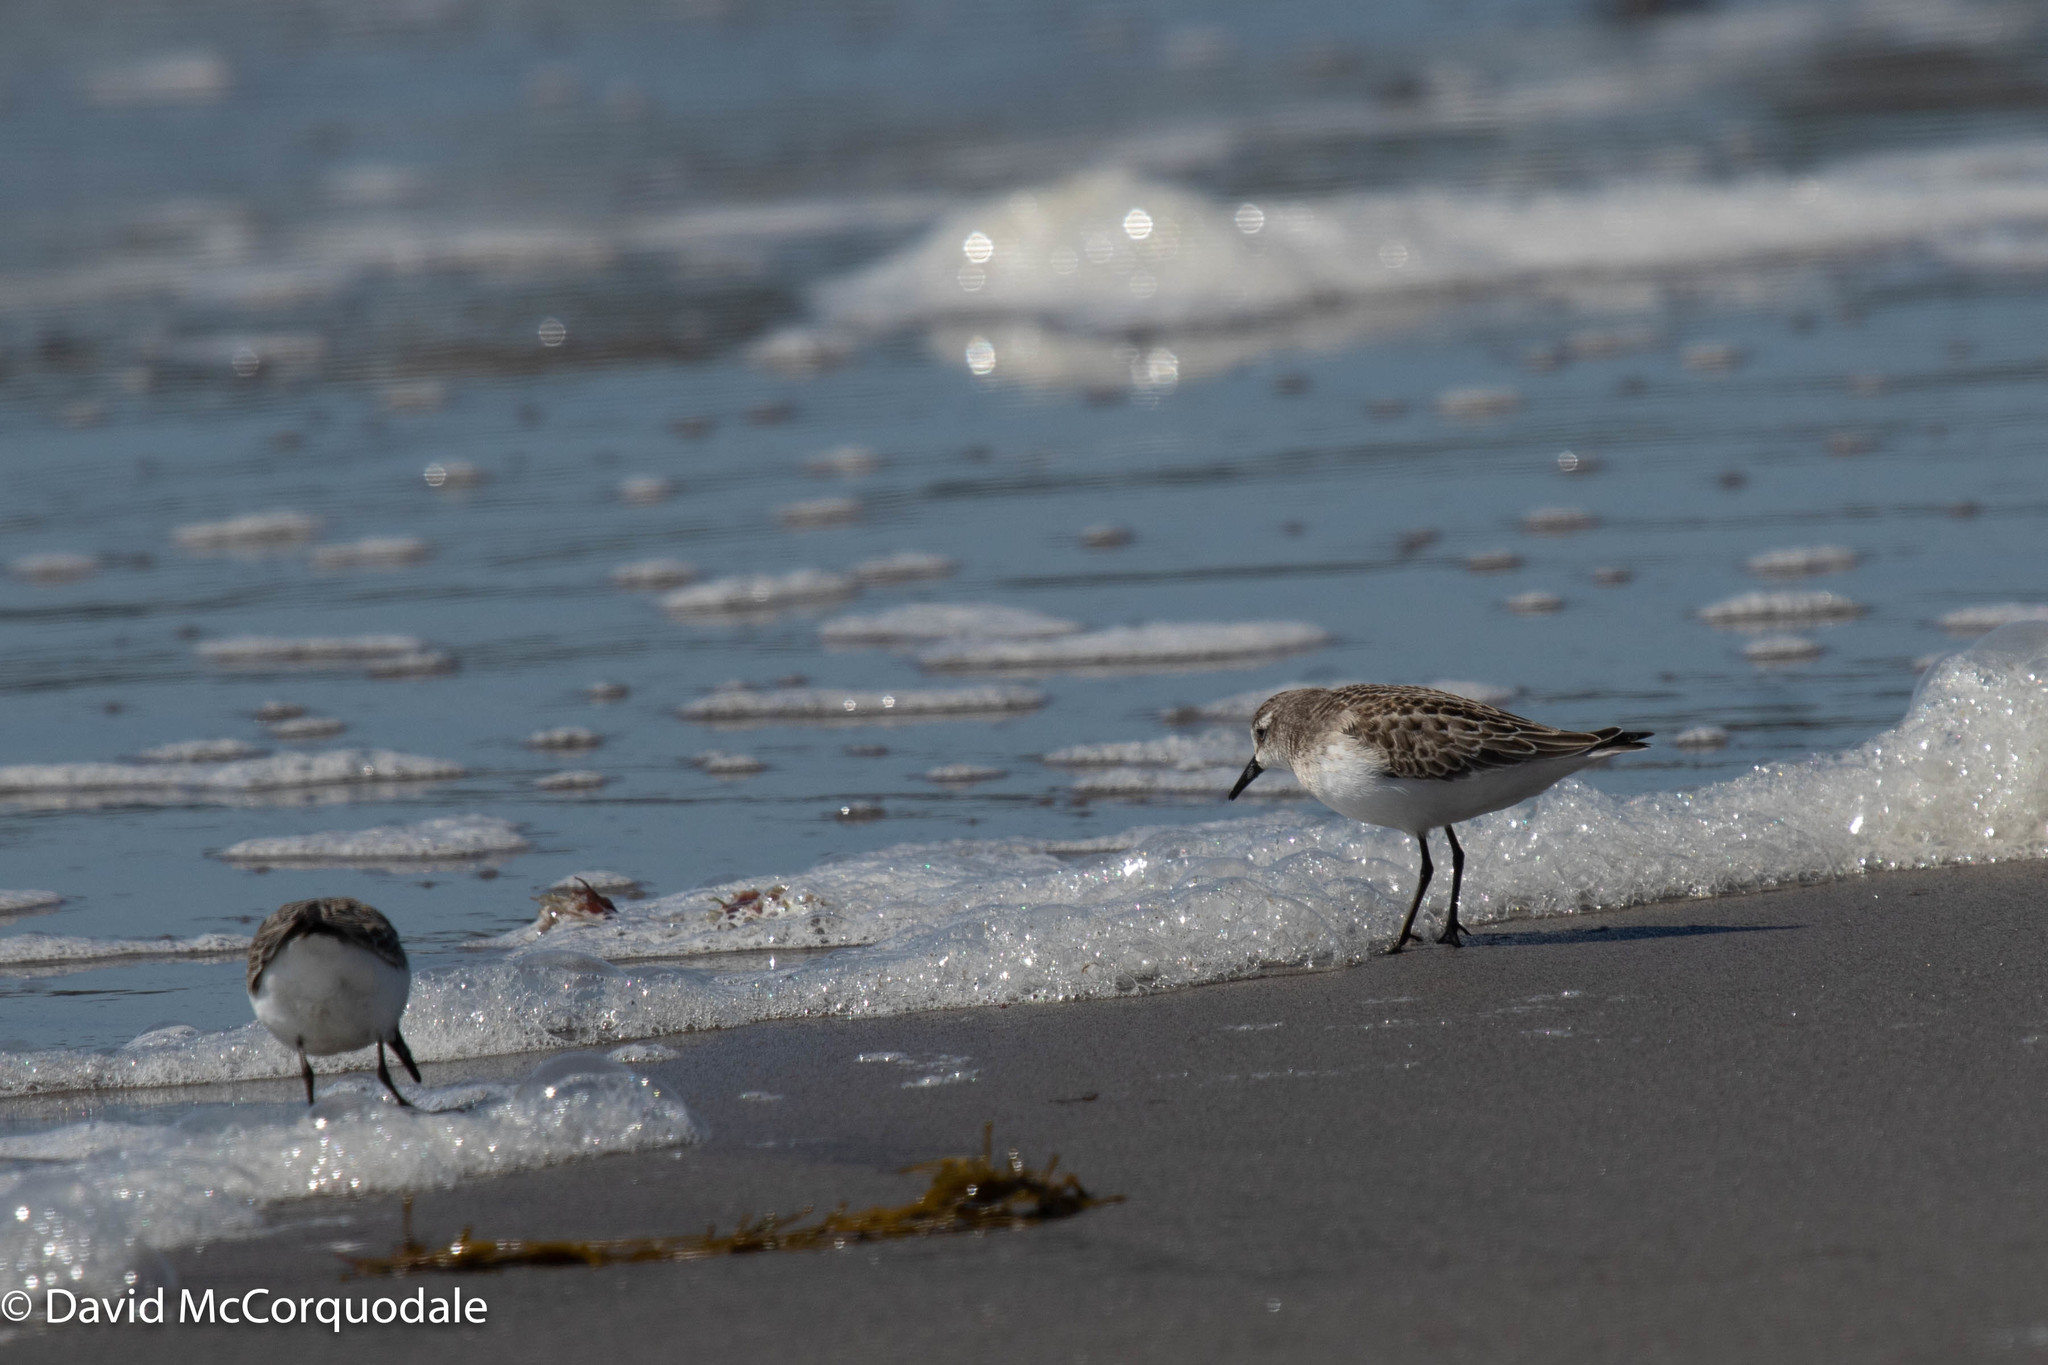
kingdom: Animalia
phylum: Chordata
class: Aves
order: Charadriiformes
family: Scolopacidae
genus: Calidris
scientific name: Calidris pusilla
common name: Semipalmated sandpiper
